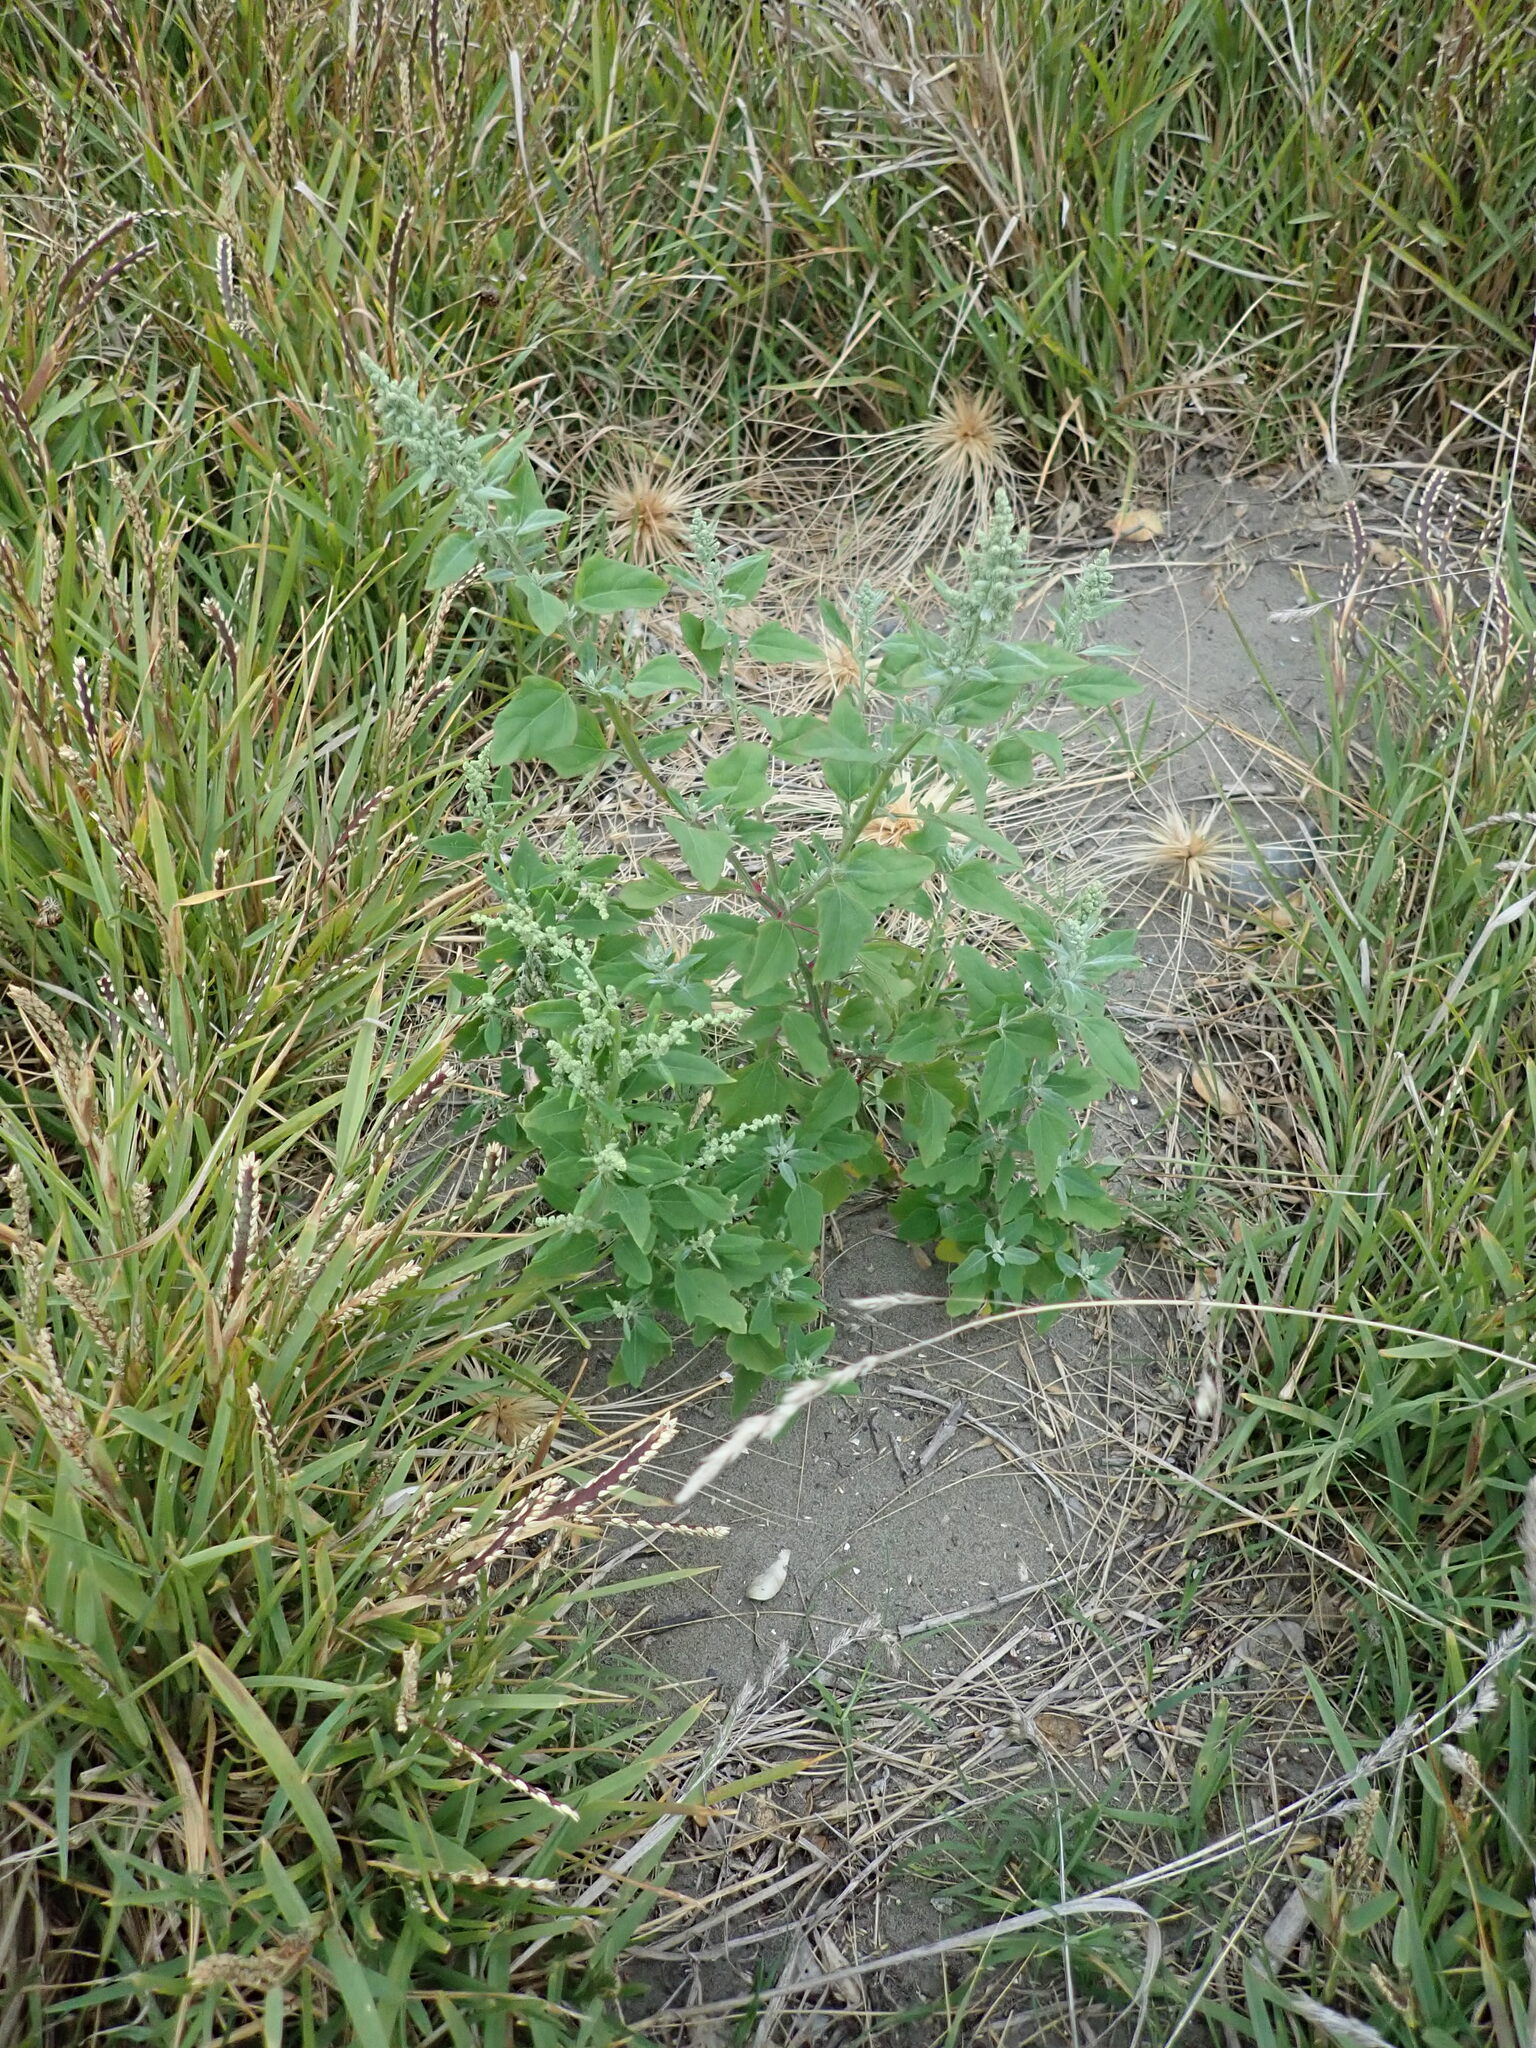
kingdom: Plantae
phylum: Tracheophyta
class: Magnoliopsida
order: Caryophyllales
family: Amaranthaceae
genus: Chenopodium
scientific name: Chenopodium album
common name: Fat-hen
